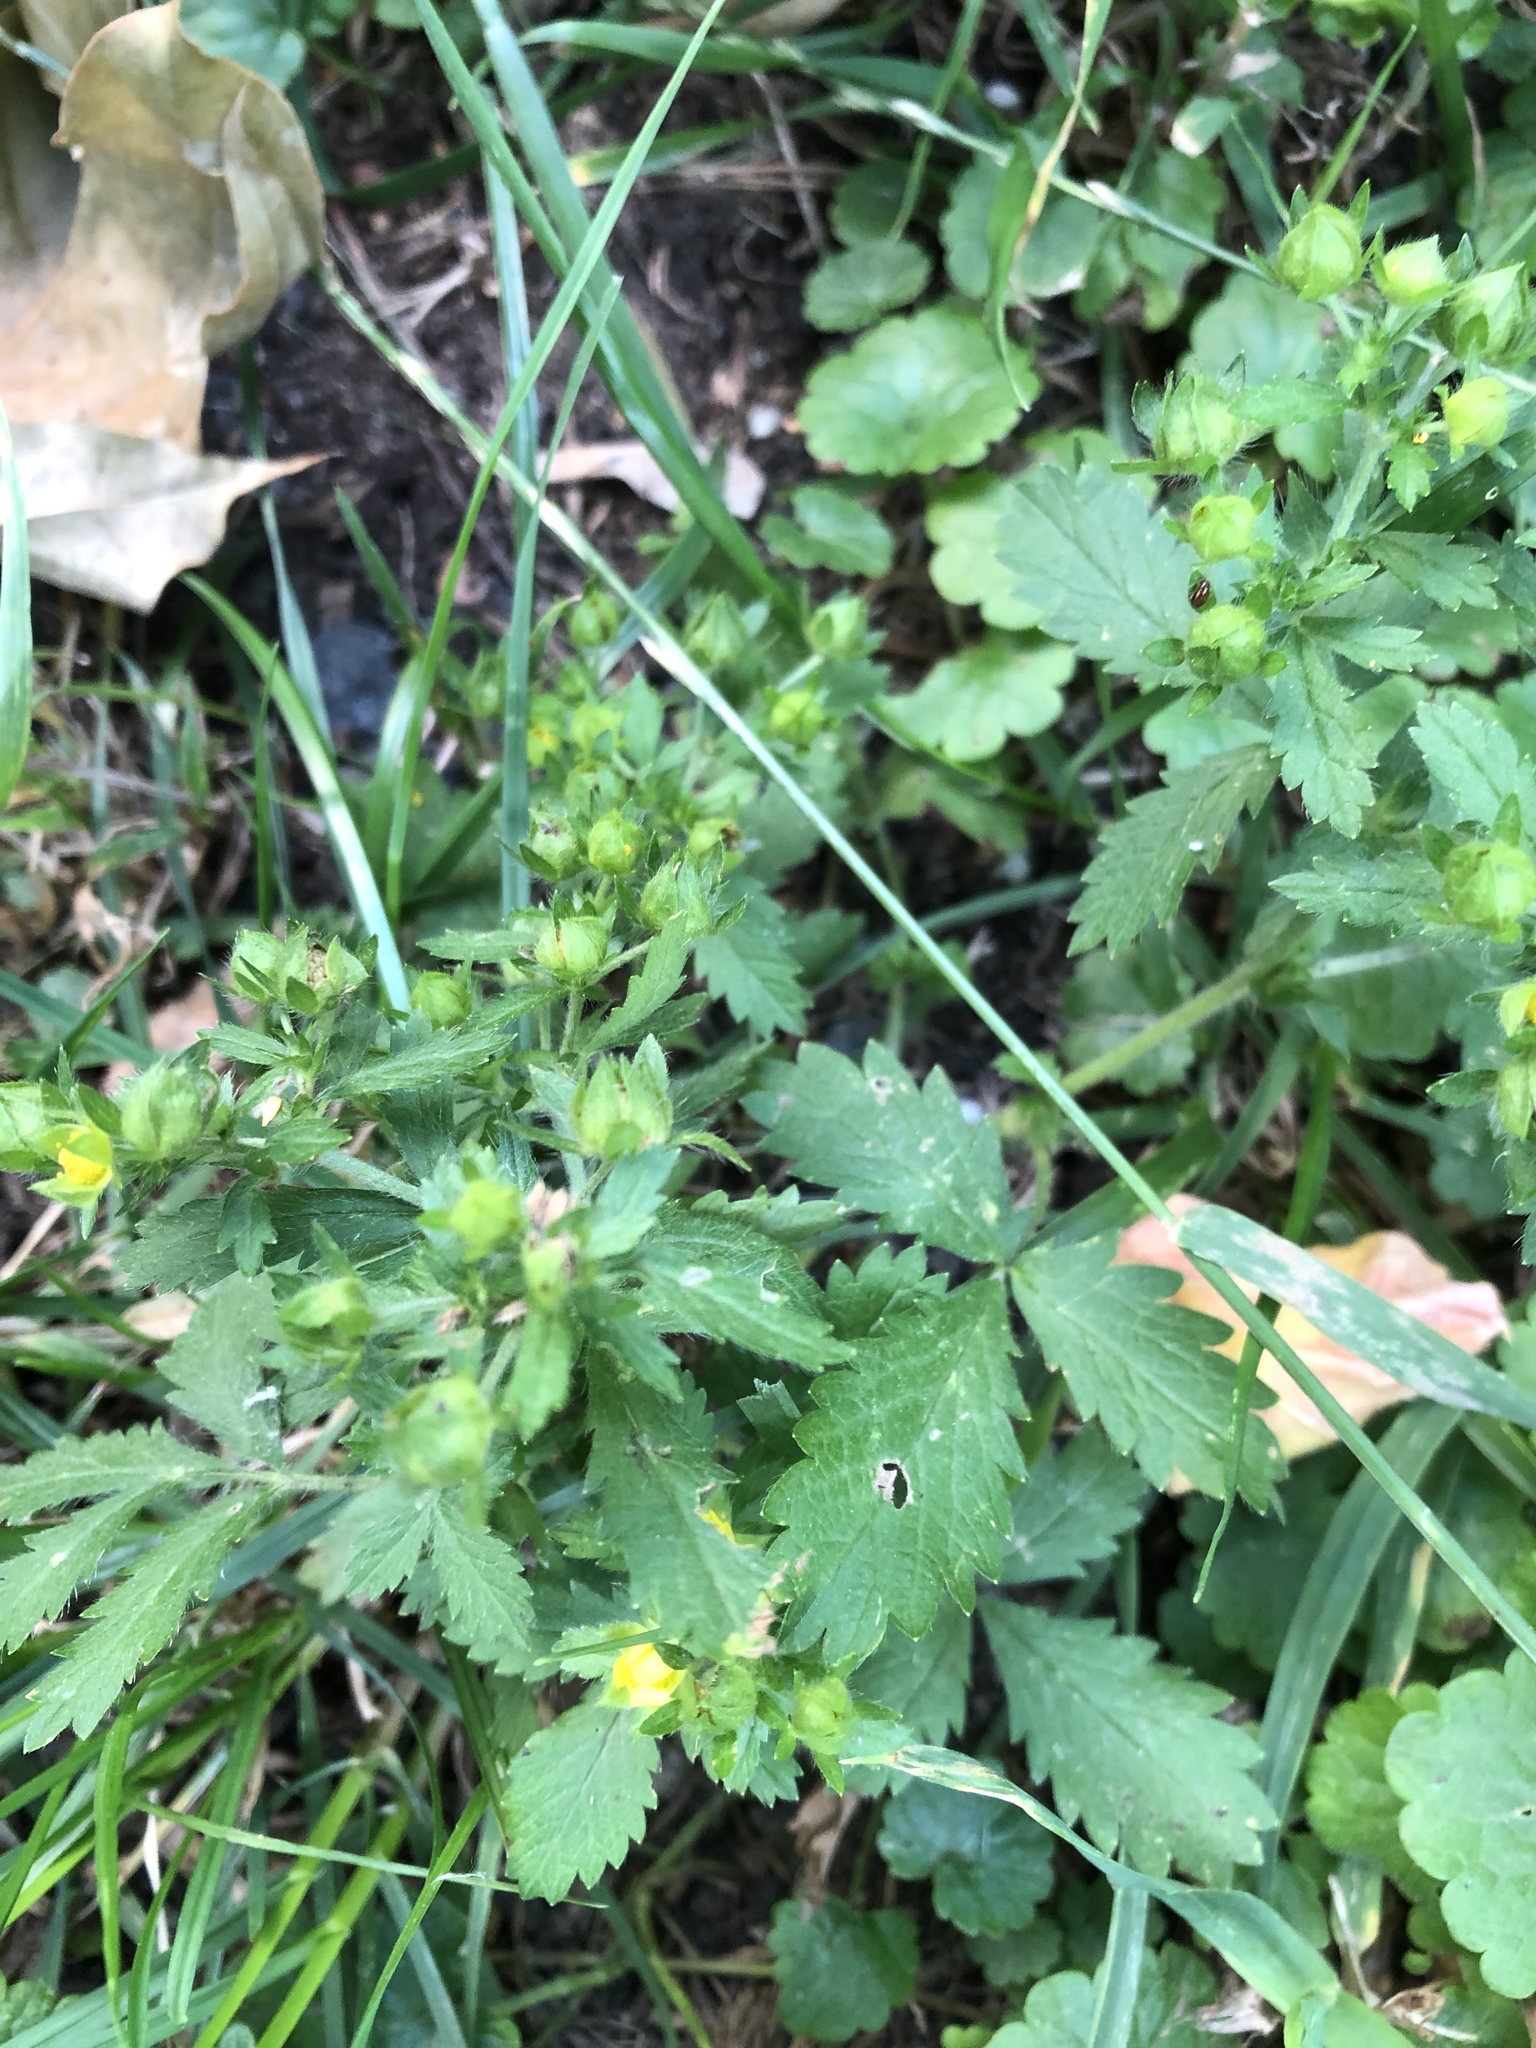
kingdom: Plantae
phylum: Tracheophyta
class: Magnoliopsida
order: Rosales
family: Rosaceae
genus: Potentilla
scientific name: Potentilla supina
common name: Prostrate cinquefoil
